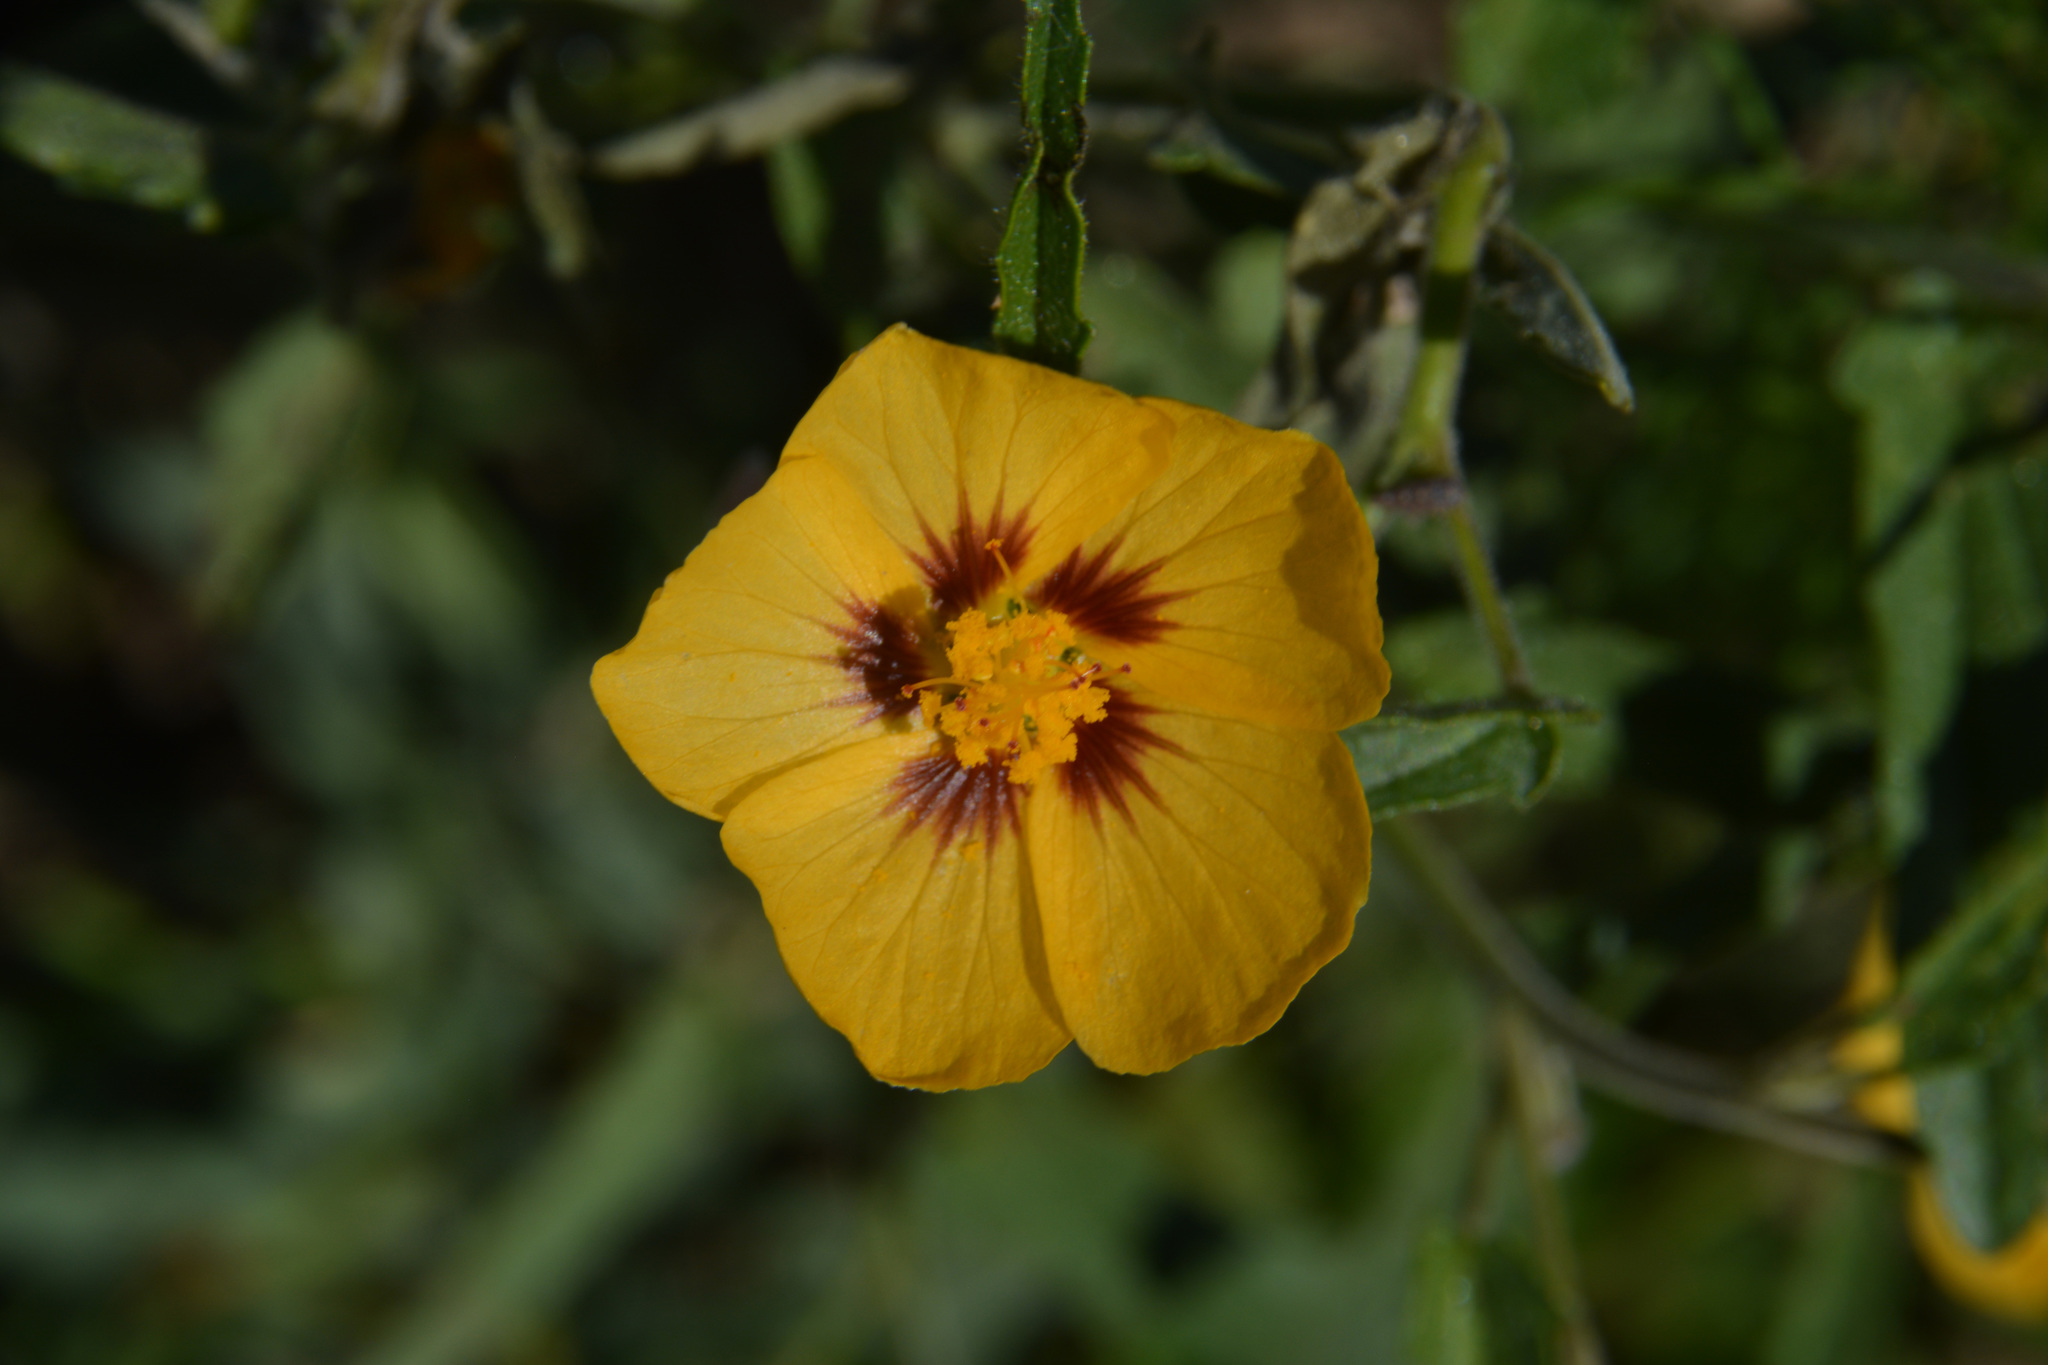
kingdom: Plantae
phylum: Tracheophyta
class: Magnoliopsida
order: Malvales
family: Malvaceae
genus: Gaya
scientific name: Gaya parviflora
